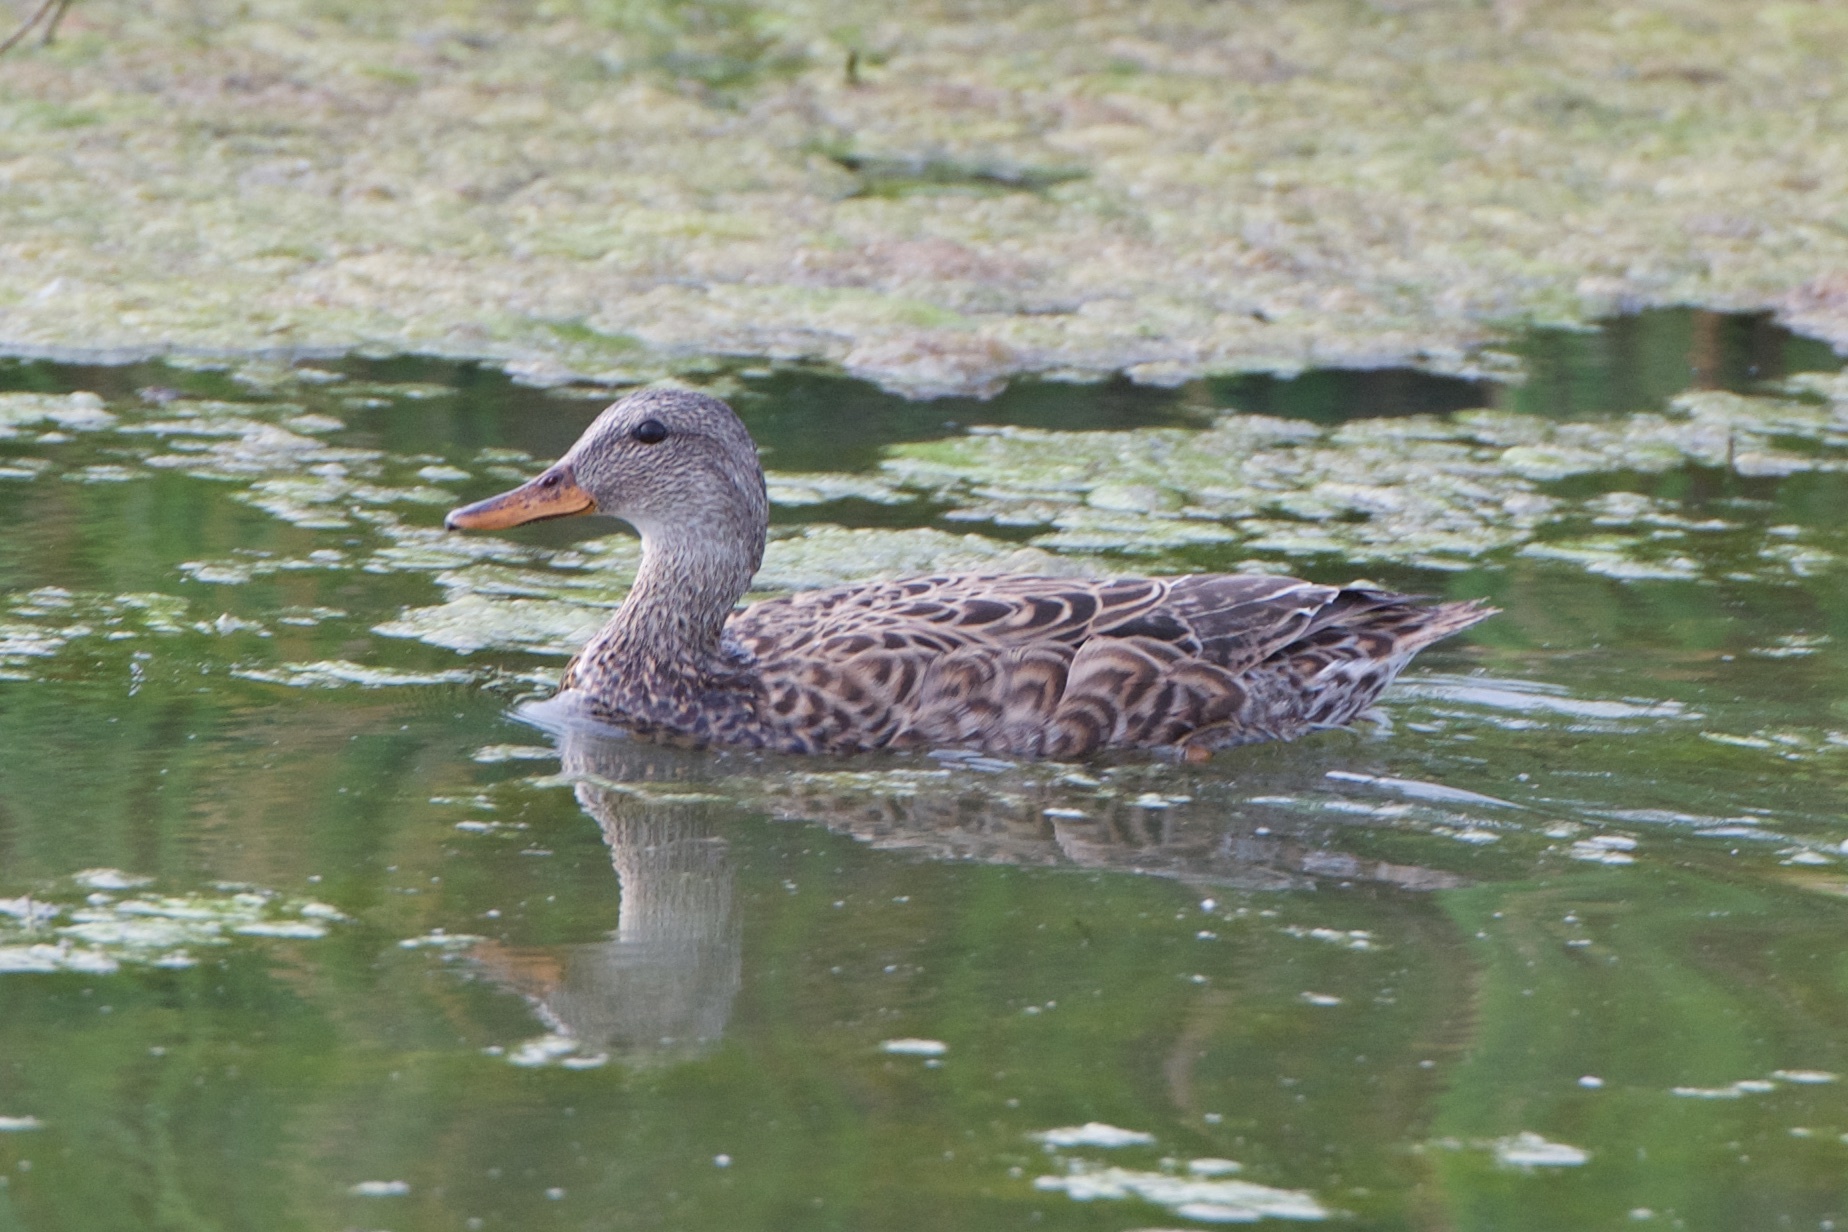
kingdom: Animalia
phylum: Chordata
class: Aves
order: Anseriformes
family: Anatidae
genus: Mareca
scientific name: Mareca strepera
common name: Gadwall
